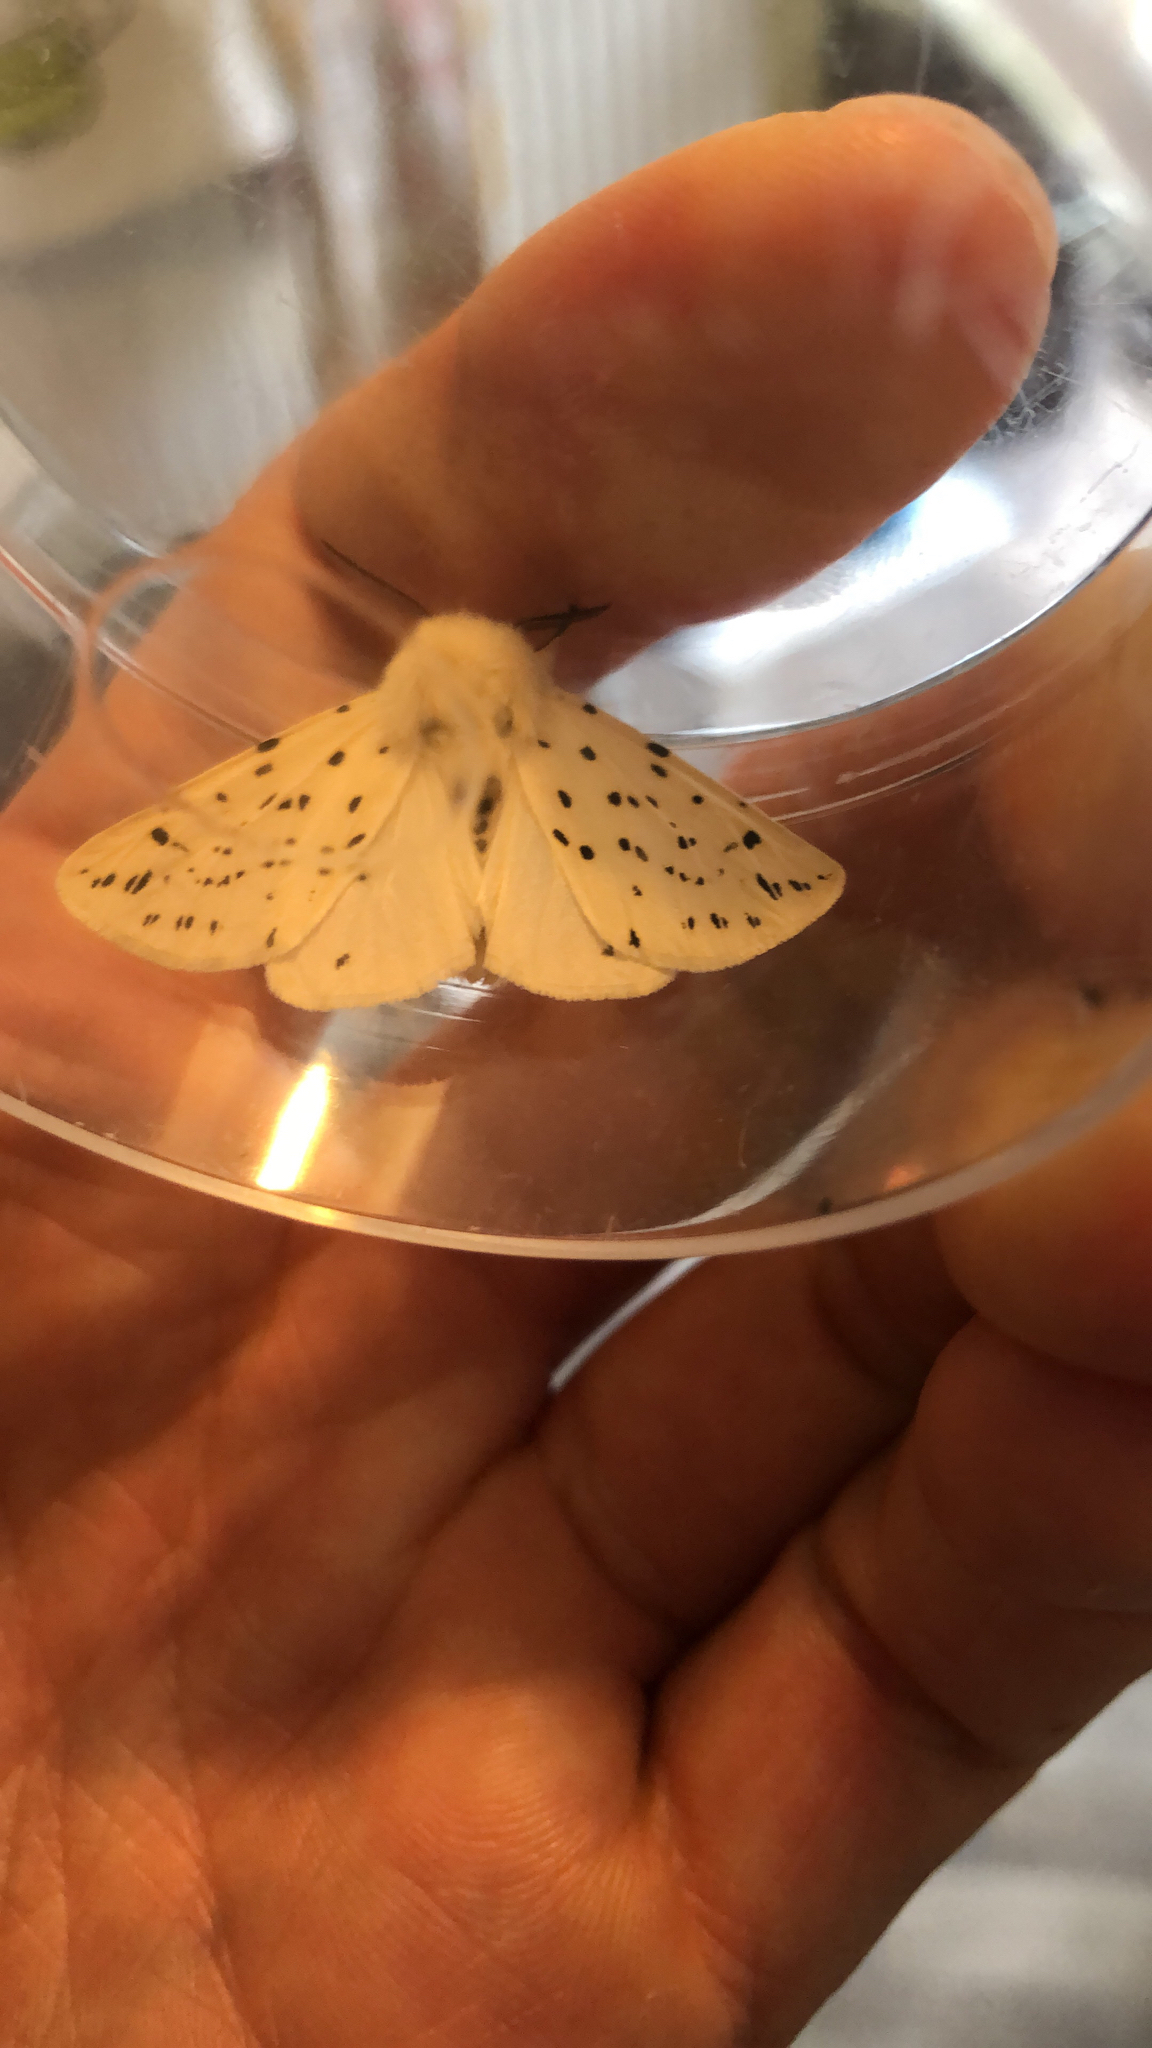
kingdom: Animalia
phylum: Arthropoda
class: Insecta
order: Lepidoptera
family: Erebidae
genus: Spilosoma
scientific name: Spilosoma lubricipeda
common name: White ermine
